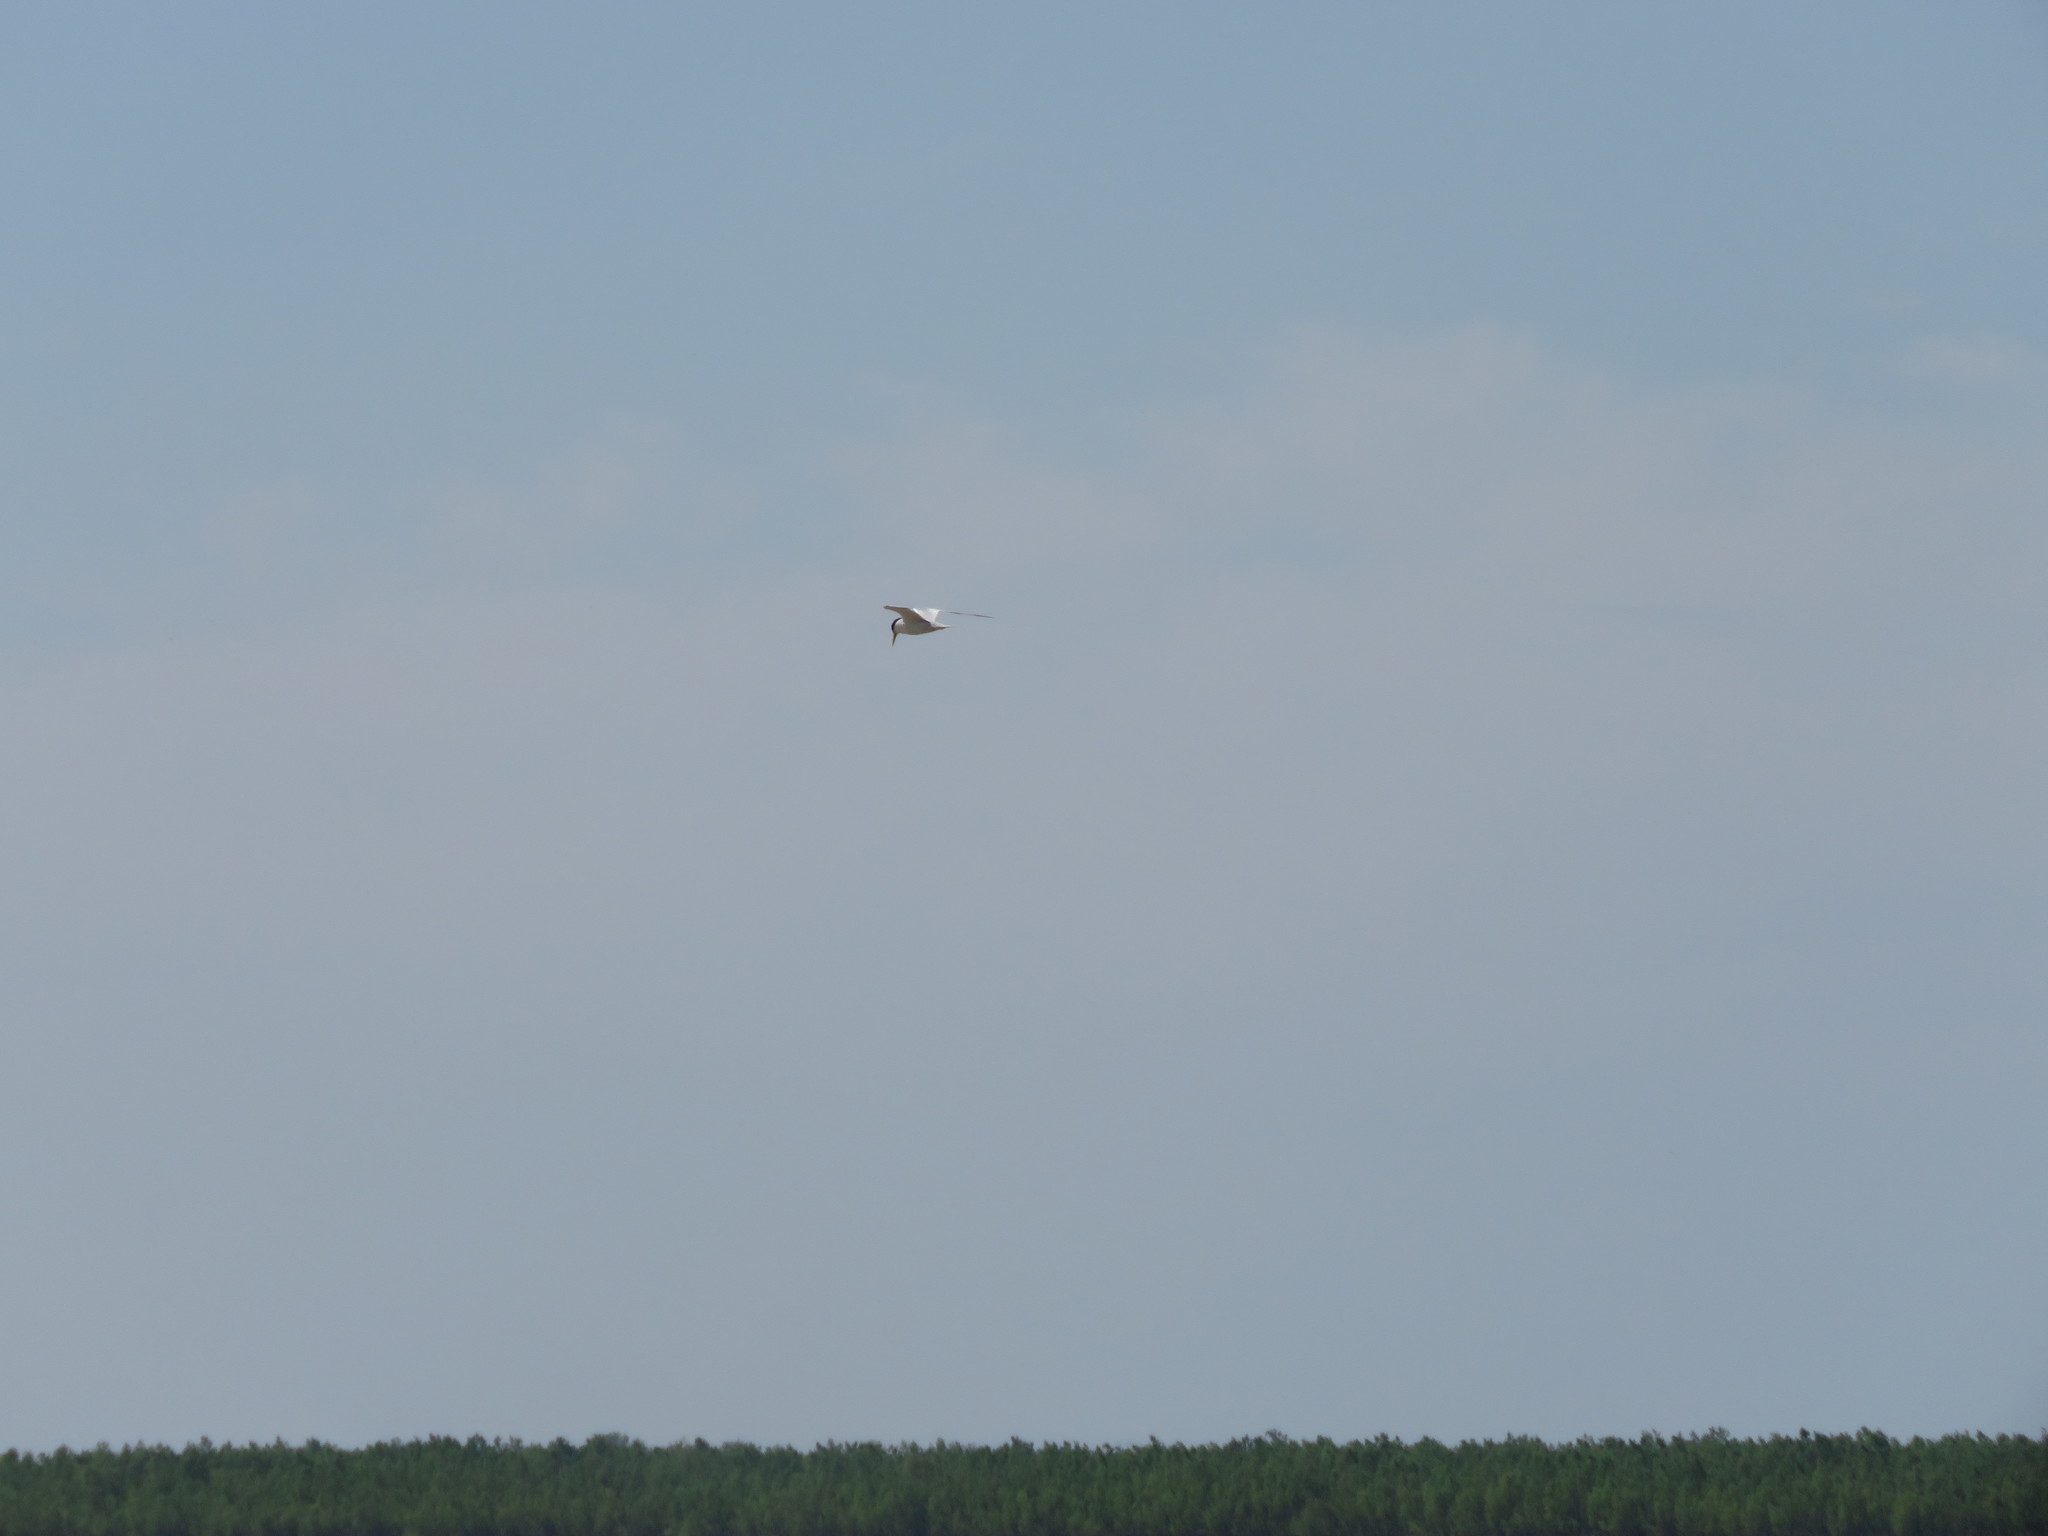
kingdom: Animalia
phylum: Chordata
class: Aves
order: Charadriiformes
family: Laridae
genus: Sternula
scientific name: Sternula superciliaris
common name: Yellow-billed tern
